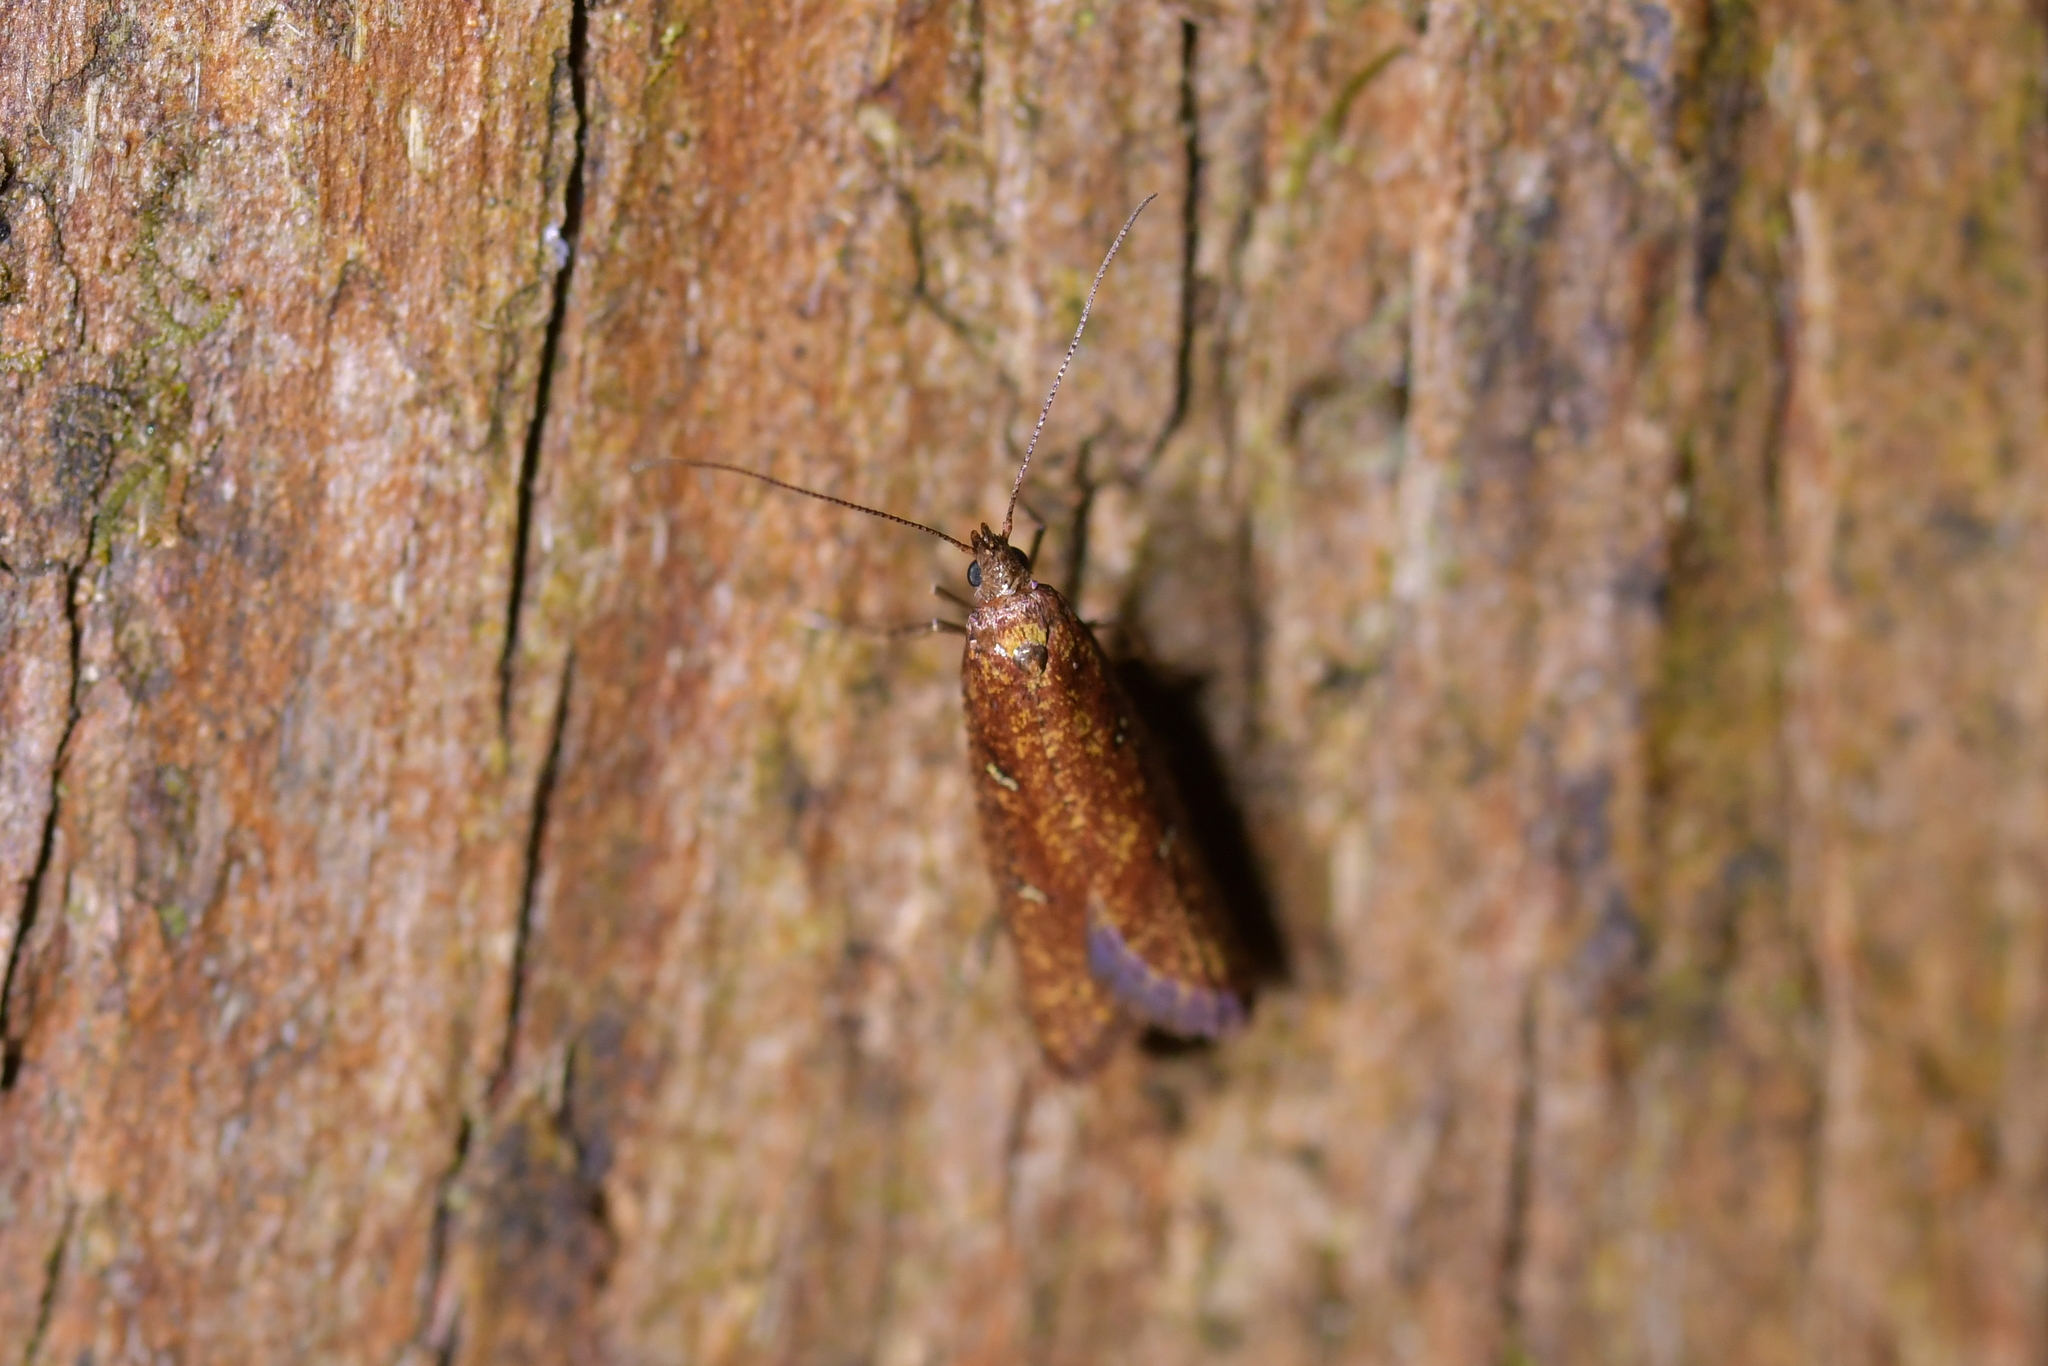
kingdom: Animalia
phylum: Arthropoda
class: Insecta
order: Lepidoptera
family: Plutellidae
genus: Cadmogenes
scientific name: Cadmogenes literata
